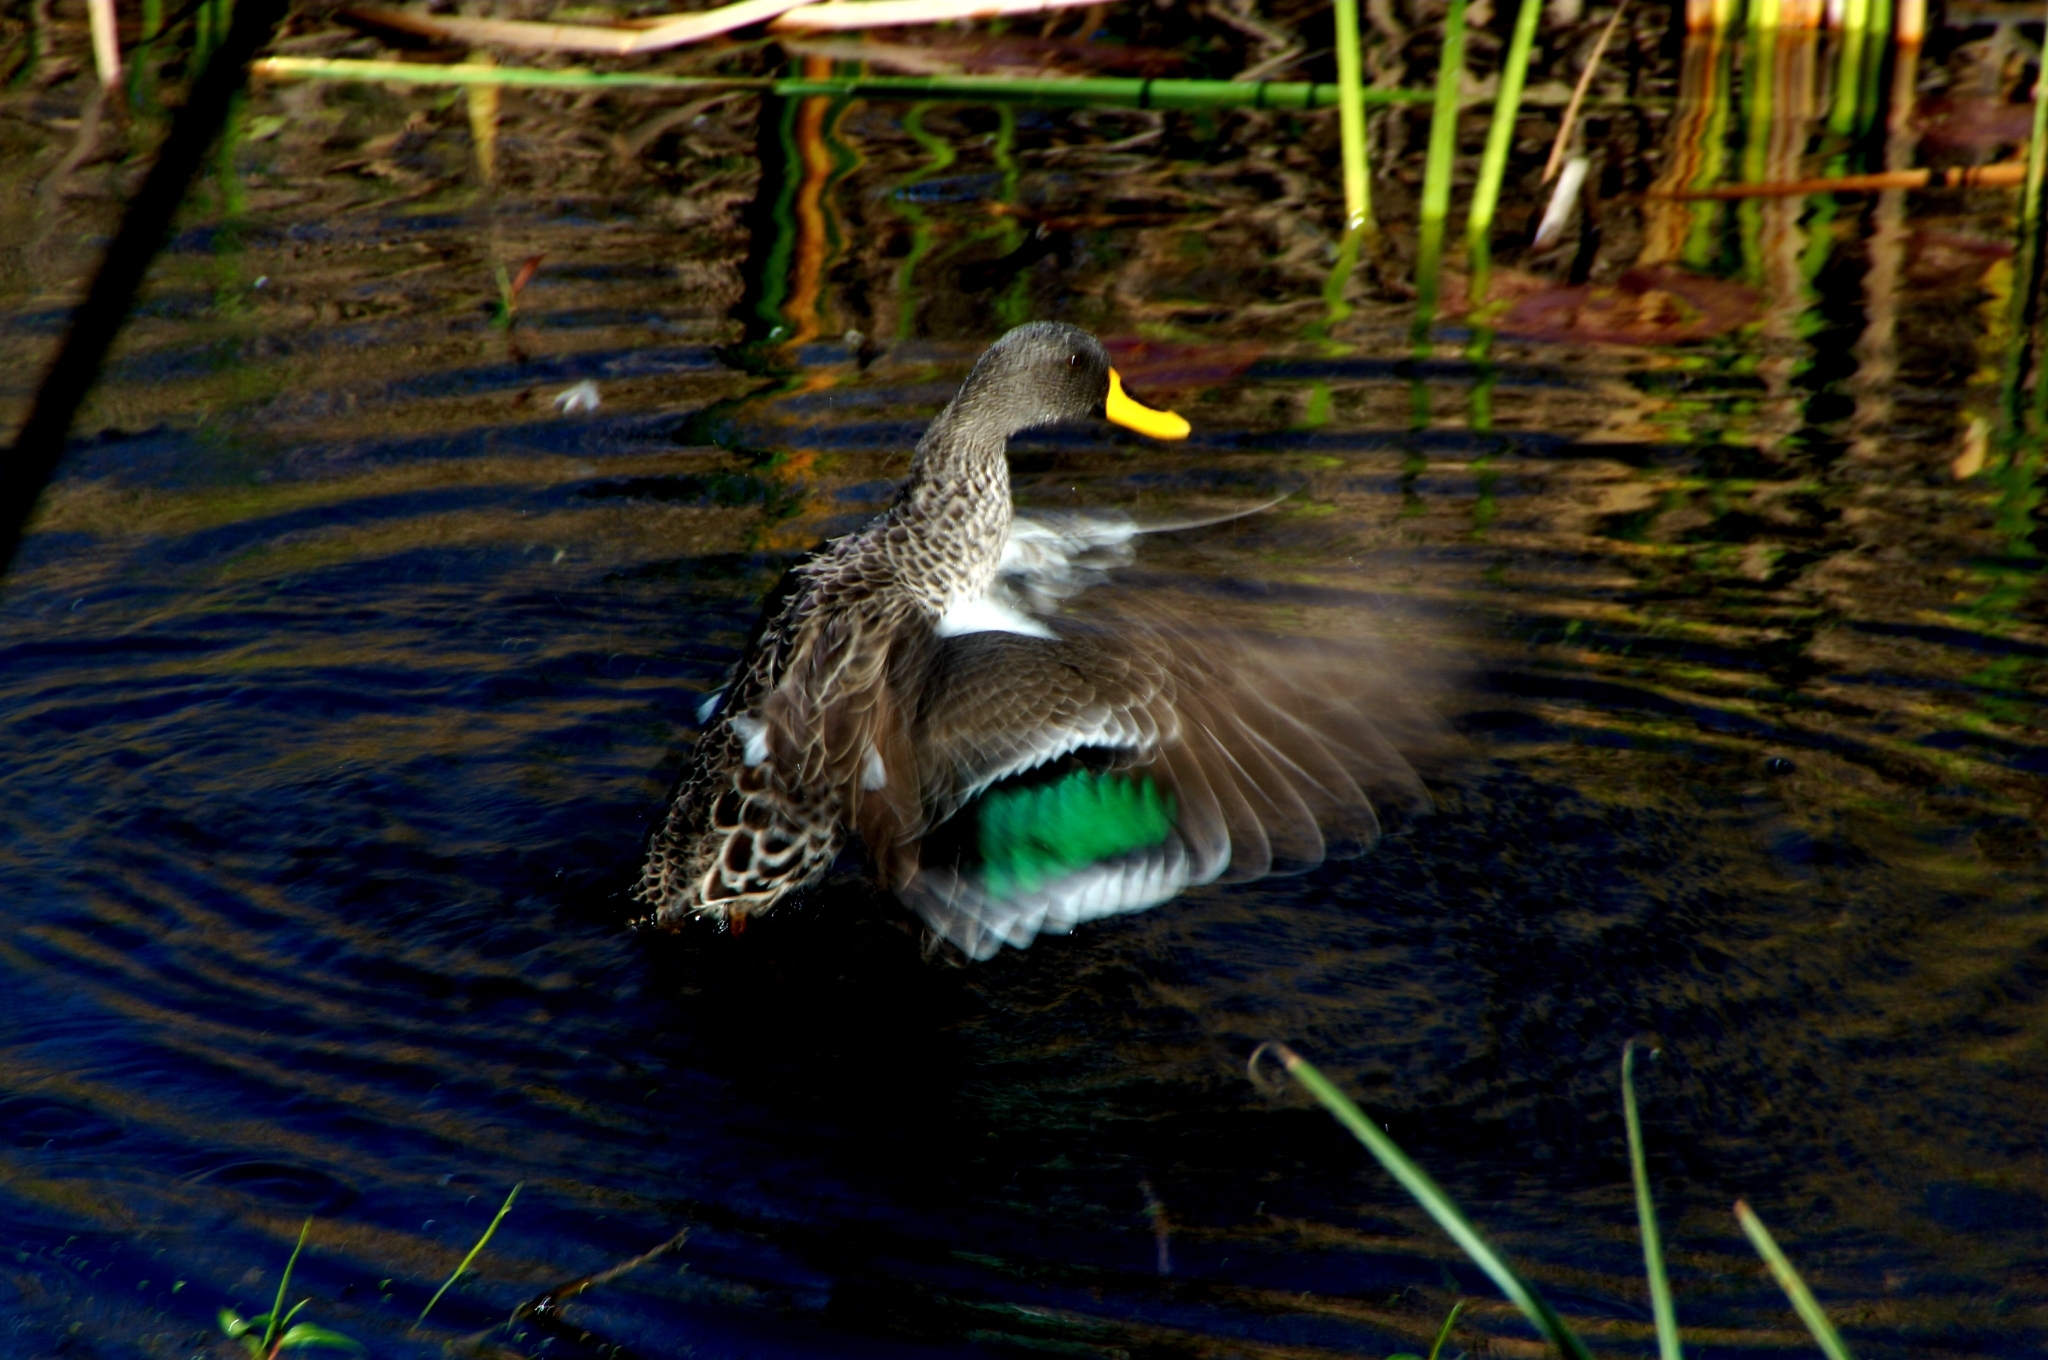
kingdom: Animalia
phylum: Chordata
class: Aves
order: Anseriformes
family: Anatidae
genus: Anas
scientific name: Anas undulata
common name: Yellow-billed duck
